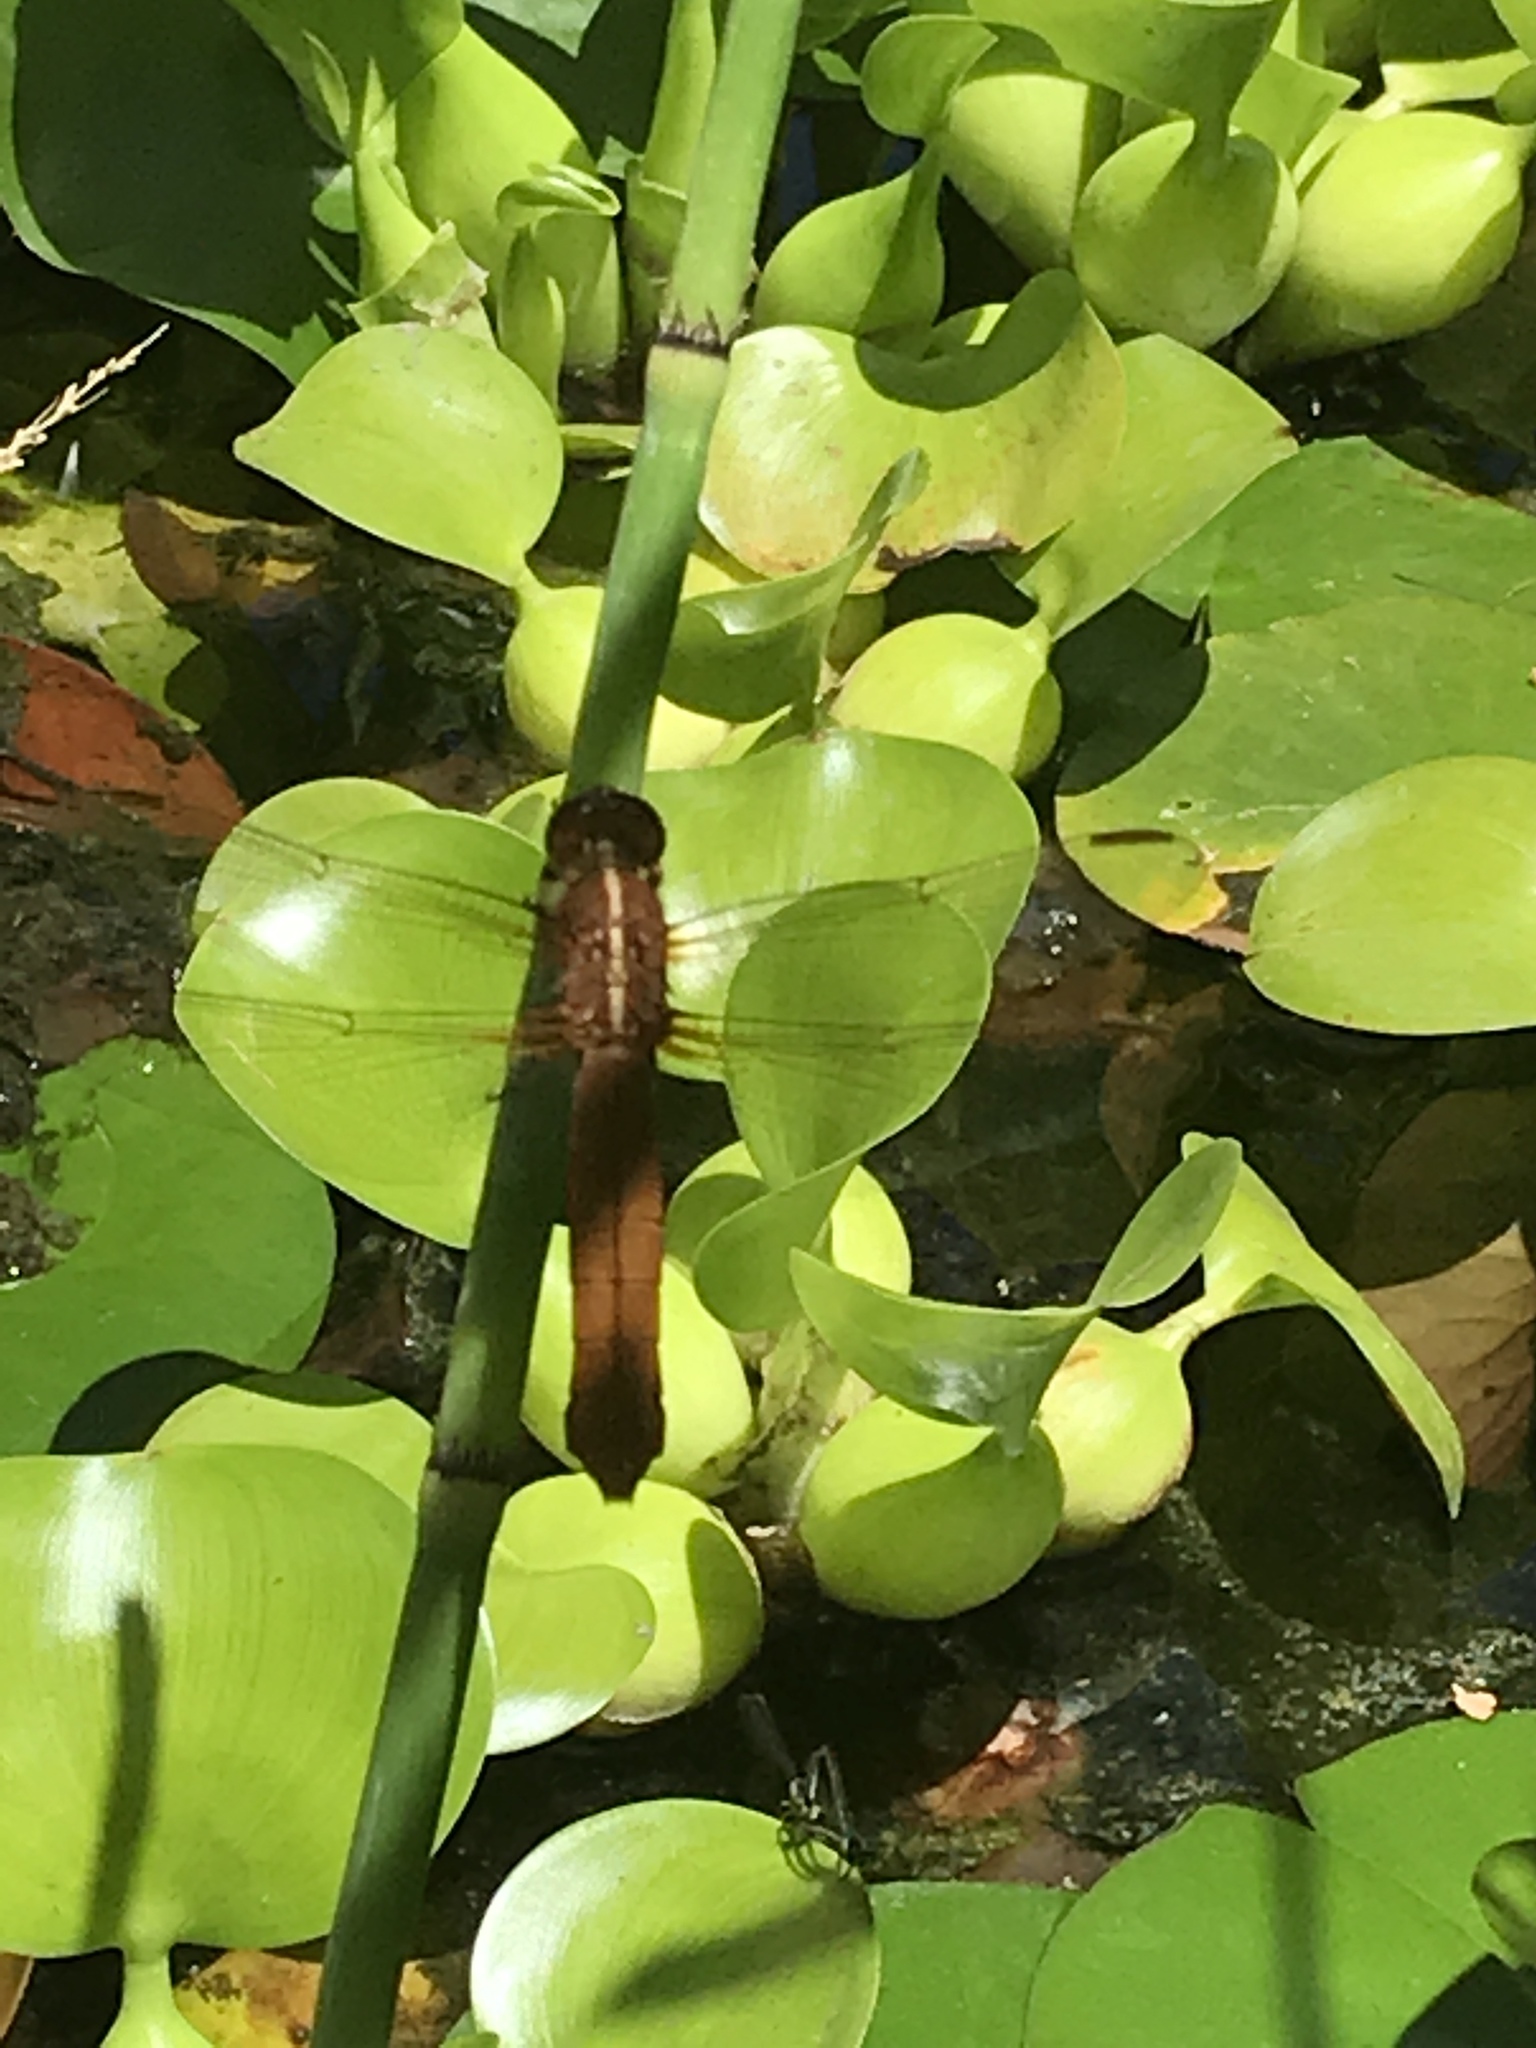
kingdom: Animalia
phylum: Arthropoda
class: Insecta
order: Odonata
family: Libellulidae
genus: Libellula
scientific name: Libellula croceipennis
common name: Neon skimmer
